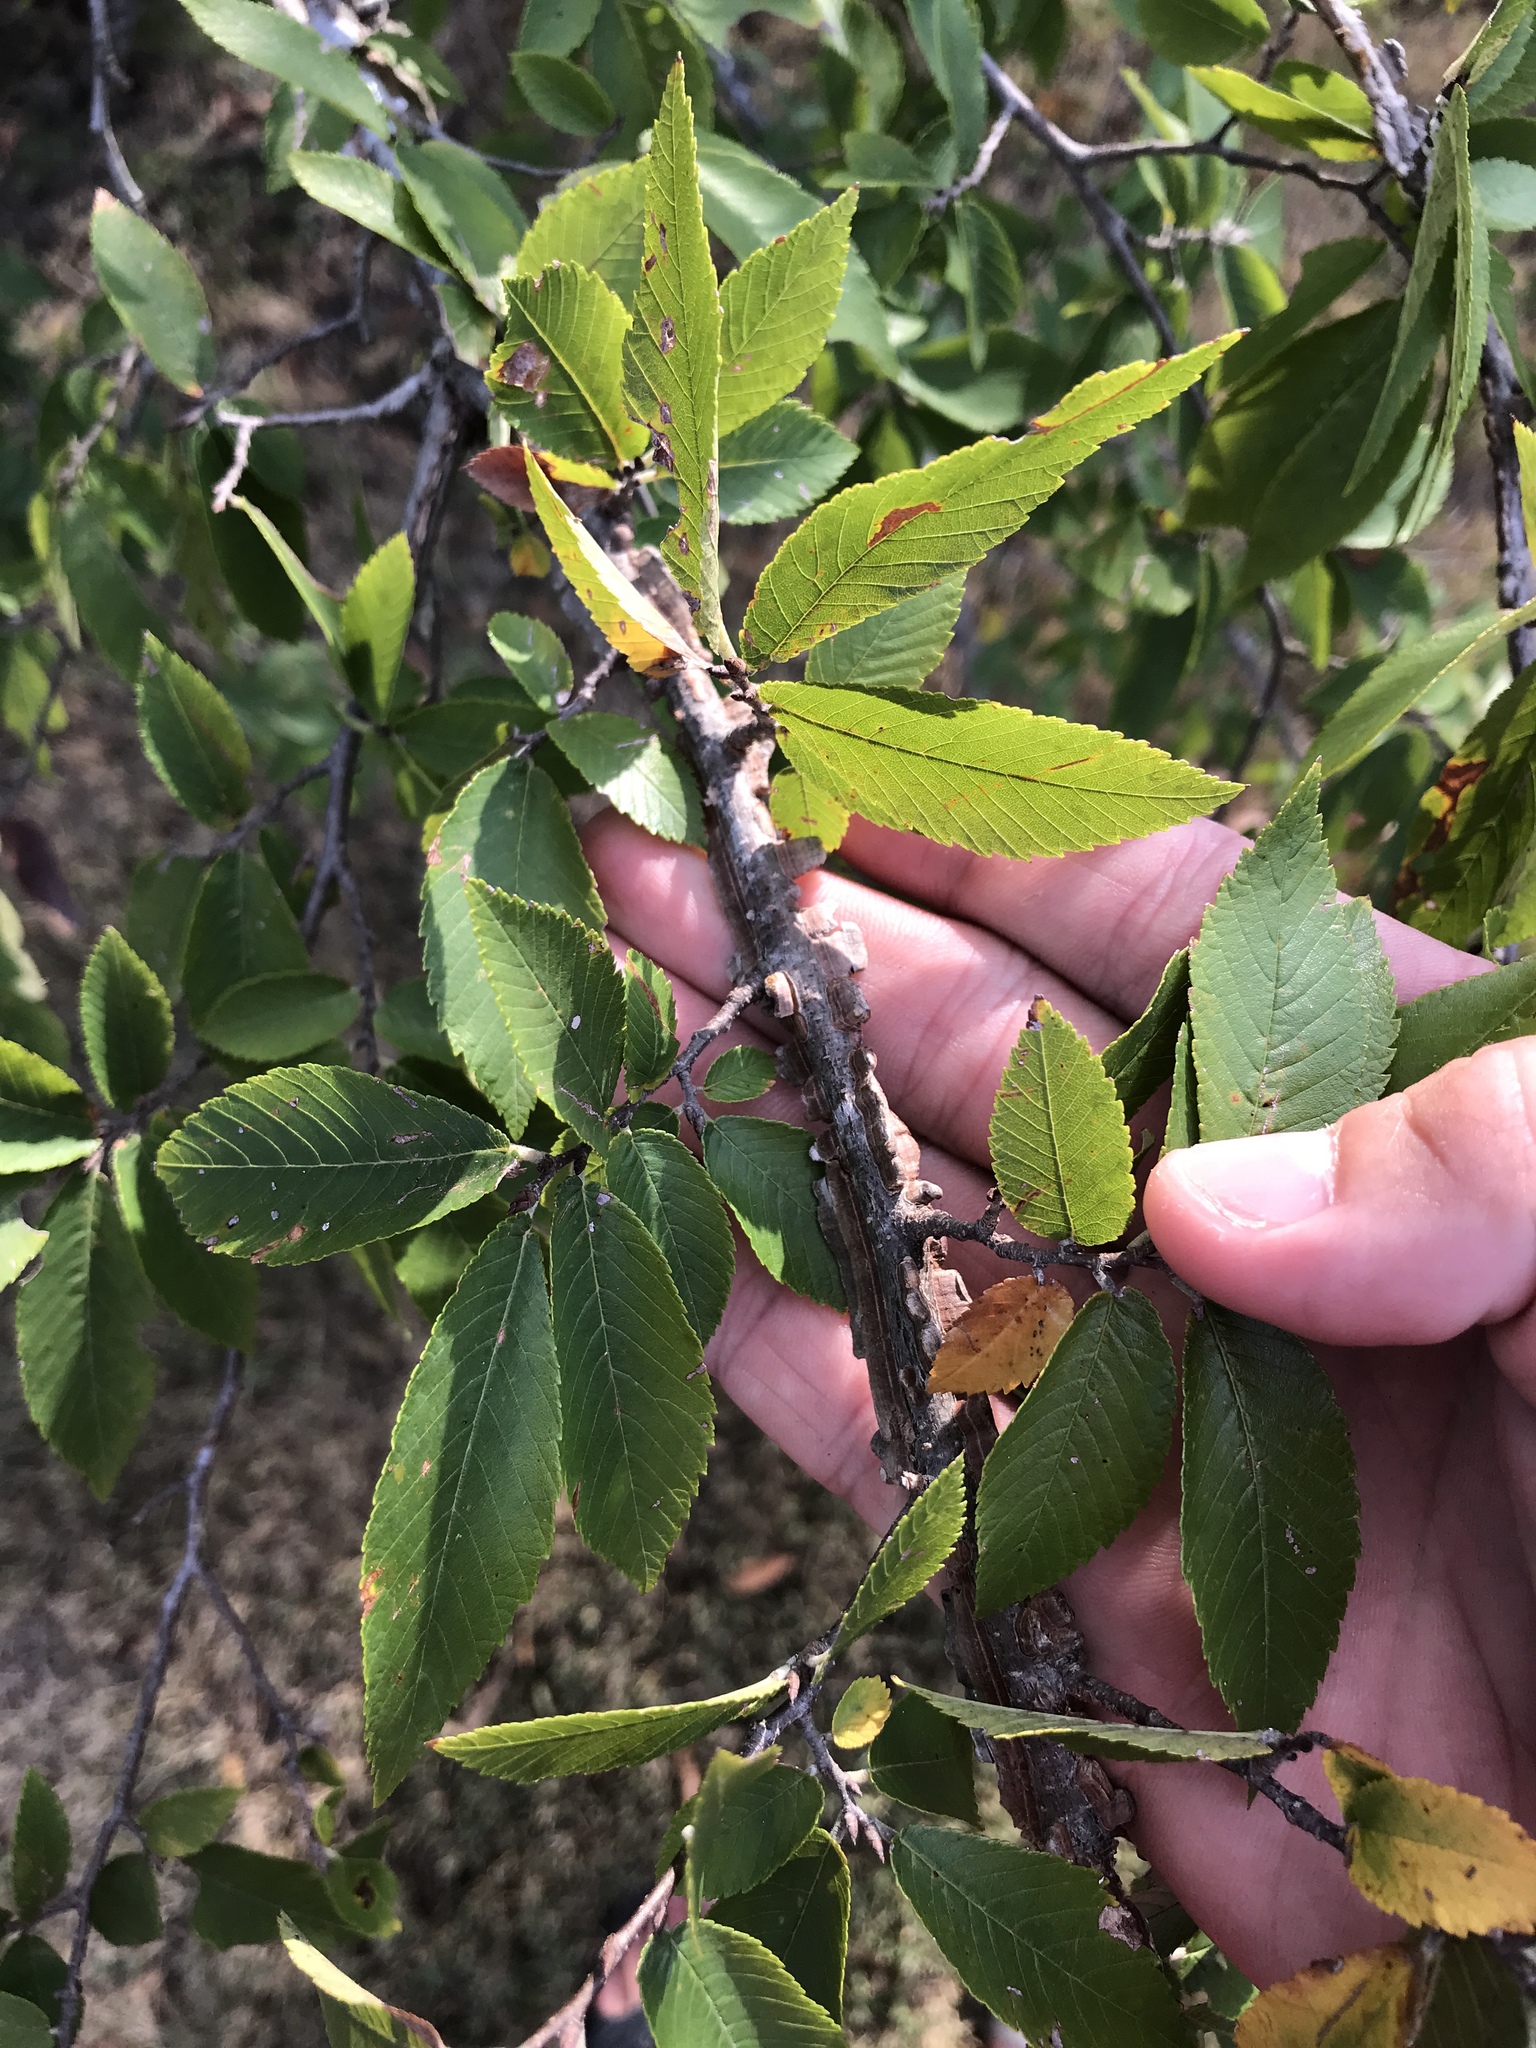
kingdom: Plantae
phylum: Tracheophyta
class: Magnoliopsida
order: Rosales
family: Ulmaceae
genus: Ulmus
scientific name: Ulmus alata
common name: Winged elm
